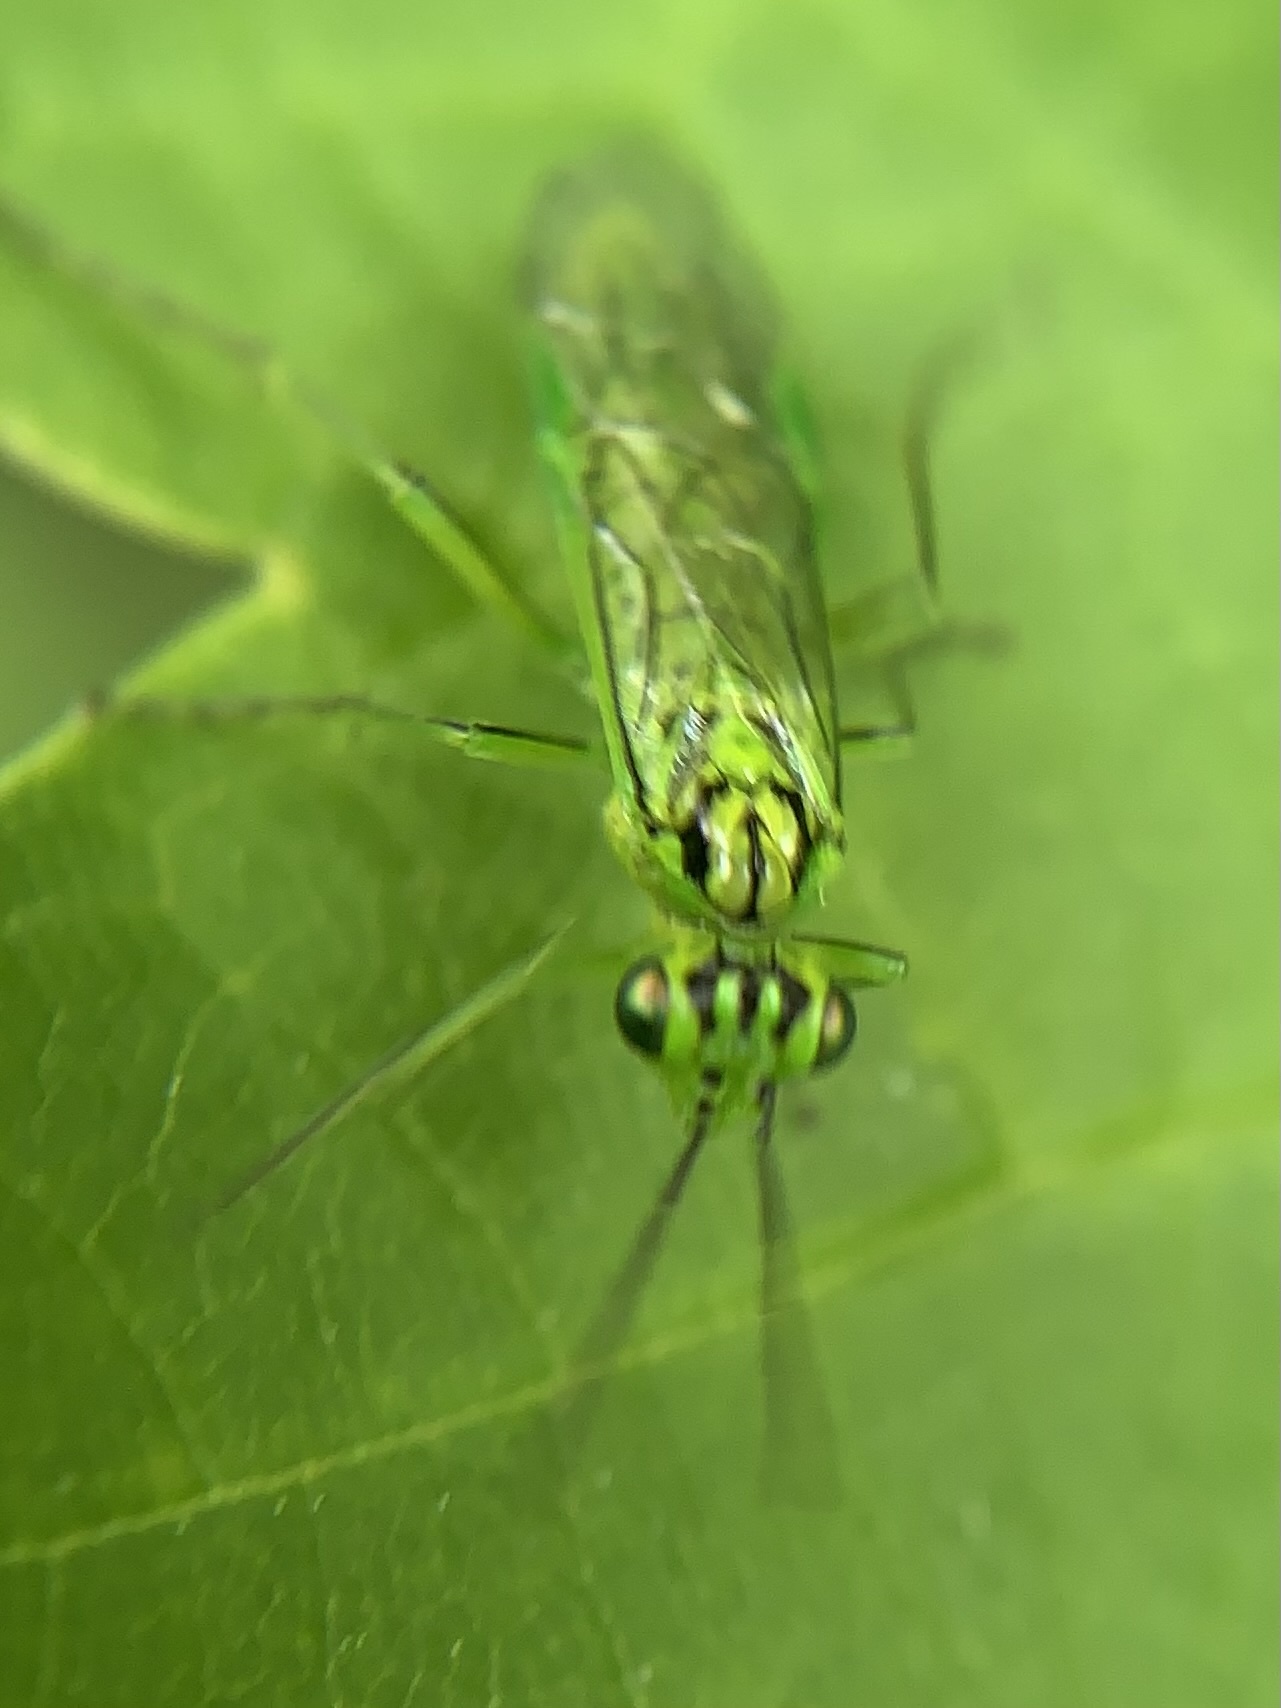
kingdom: Animalia
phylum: Arthropoda
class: Insecta
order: Hymenoptera
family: Tenthredinidae
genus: Rhogogaster
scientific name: Rhogogaster punctulata
